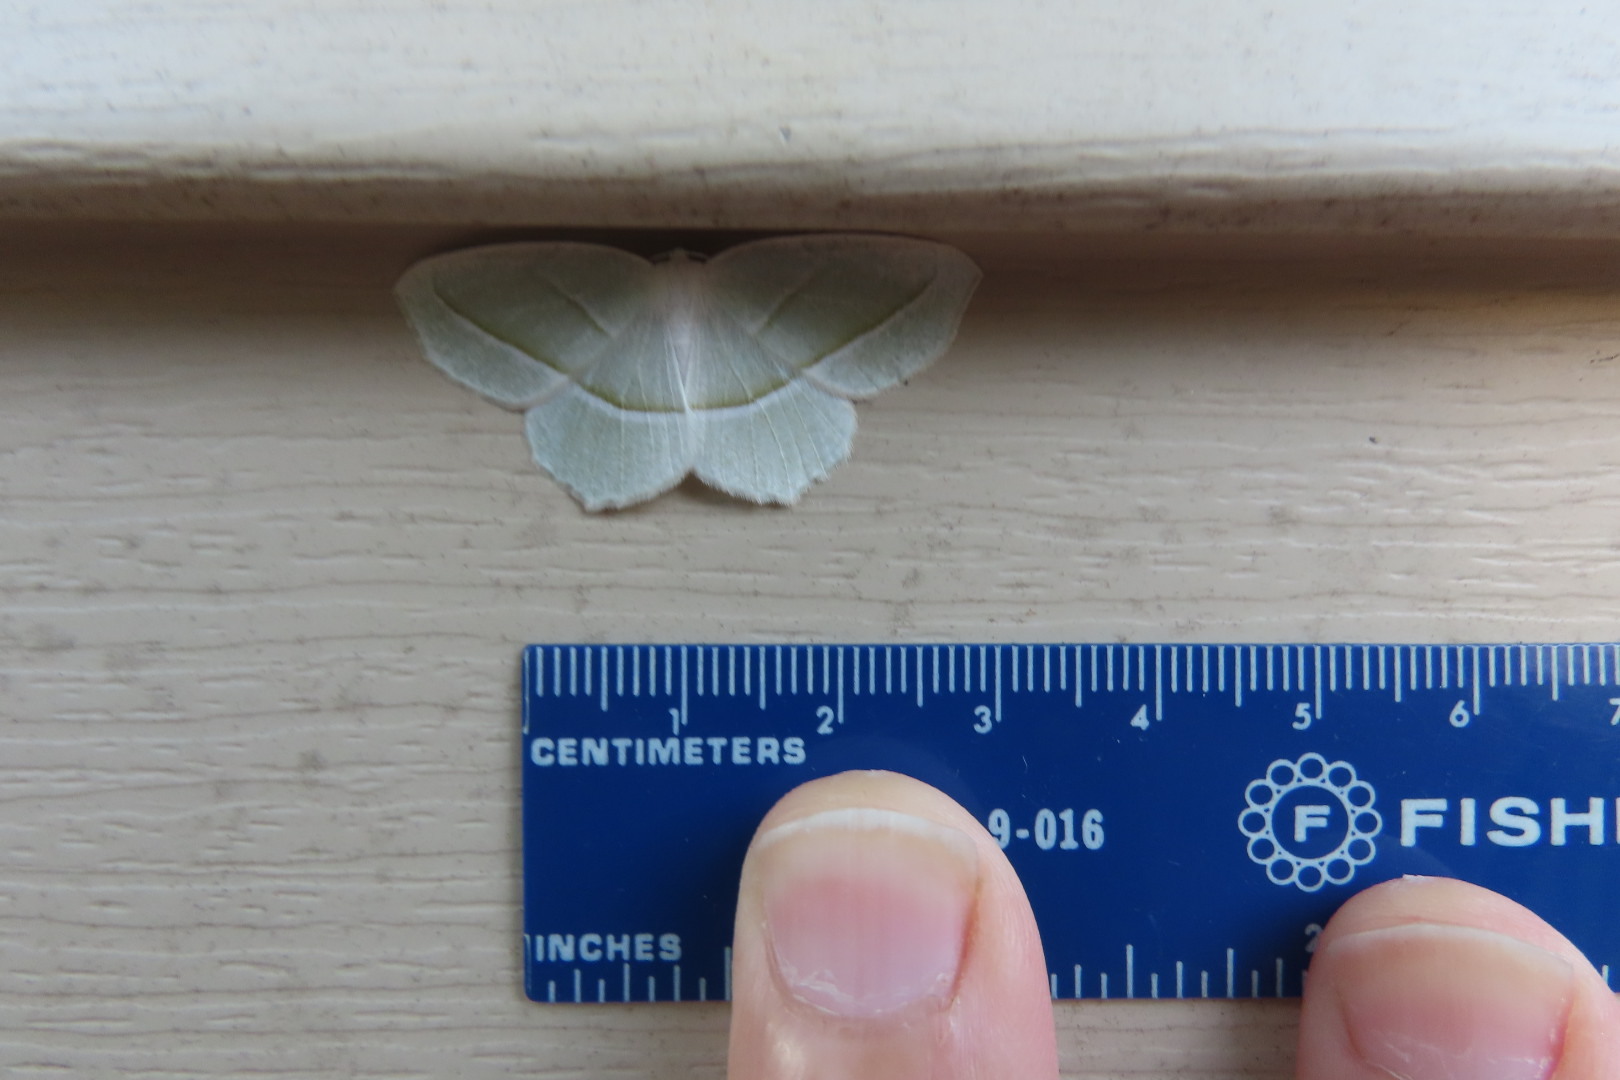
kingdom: Animalia
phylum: Arthropoda
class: Insecta
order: Lepidoptera
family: Geometridae
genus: Campaea
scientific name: Campaea perlata
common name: Fringed looper
